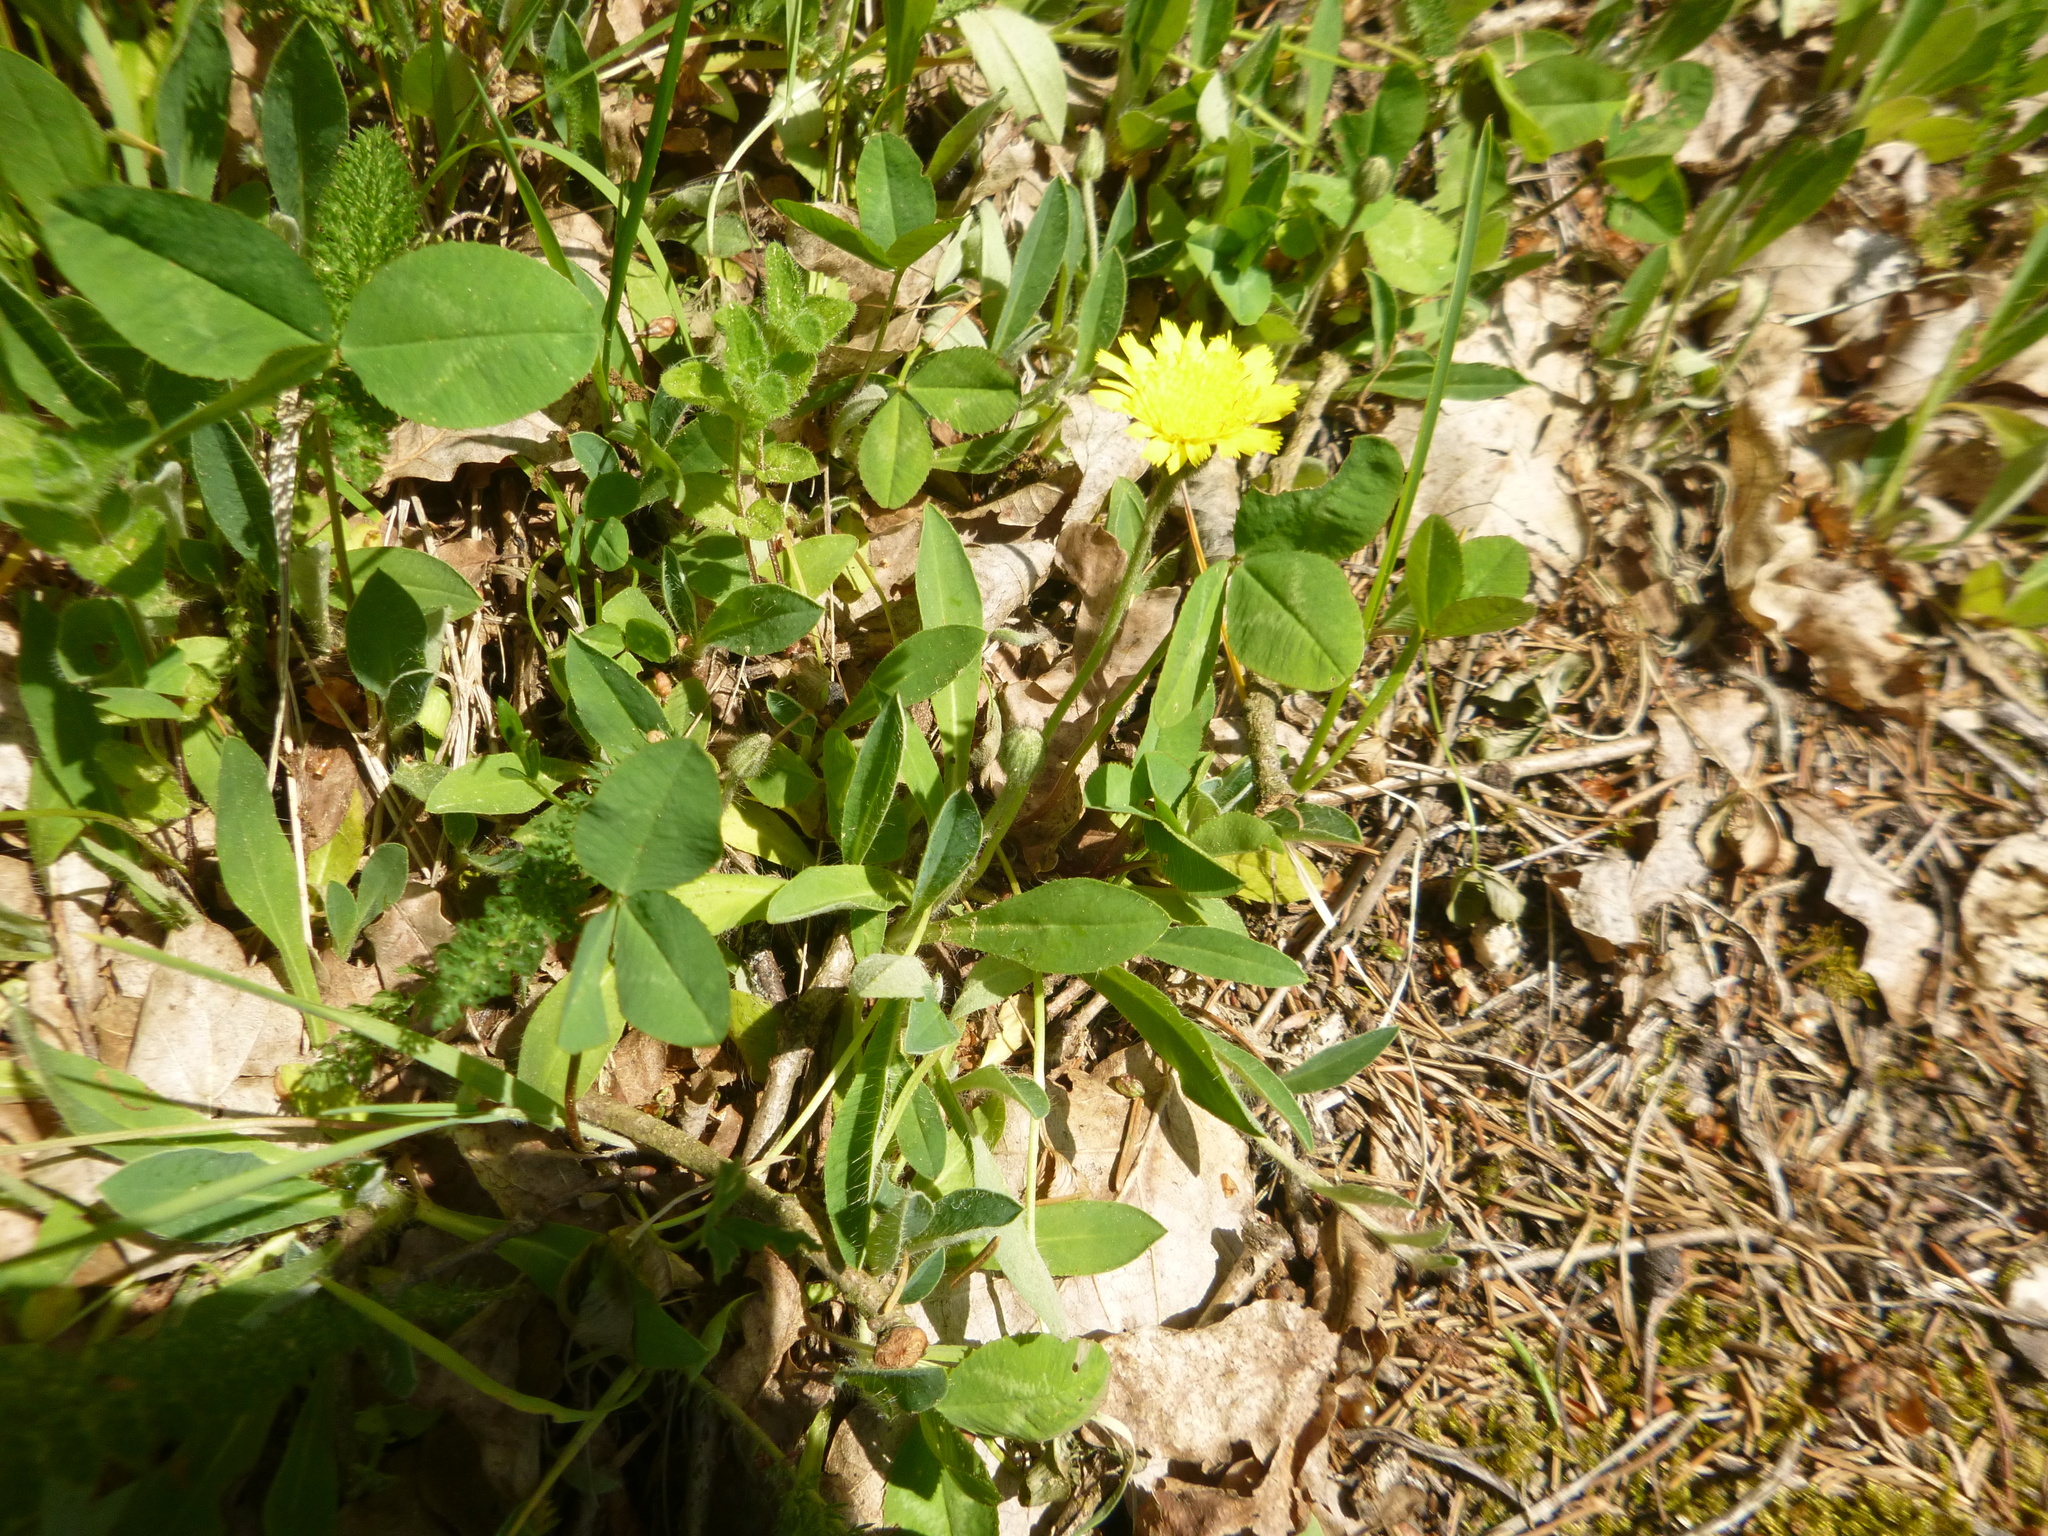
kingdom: Plantae
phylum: Tracheophyta
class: Magnoliopsida
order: Asterales
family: Asteraceae
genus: Pilosella
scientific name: Pilosella officinarum
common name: Mouse-ear hawkweed
